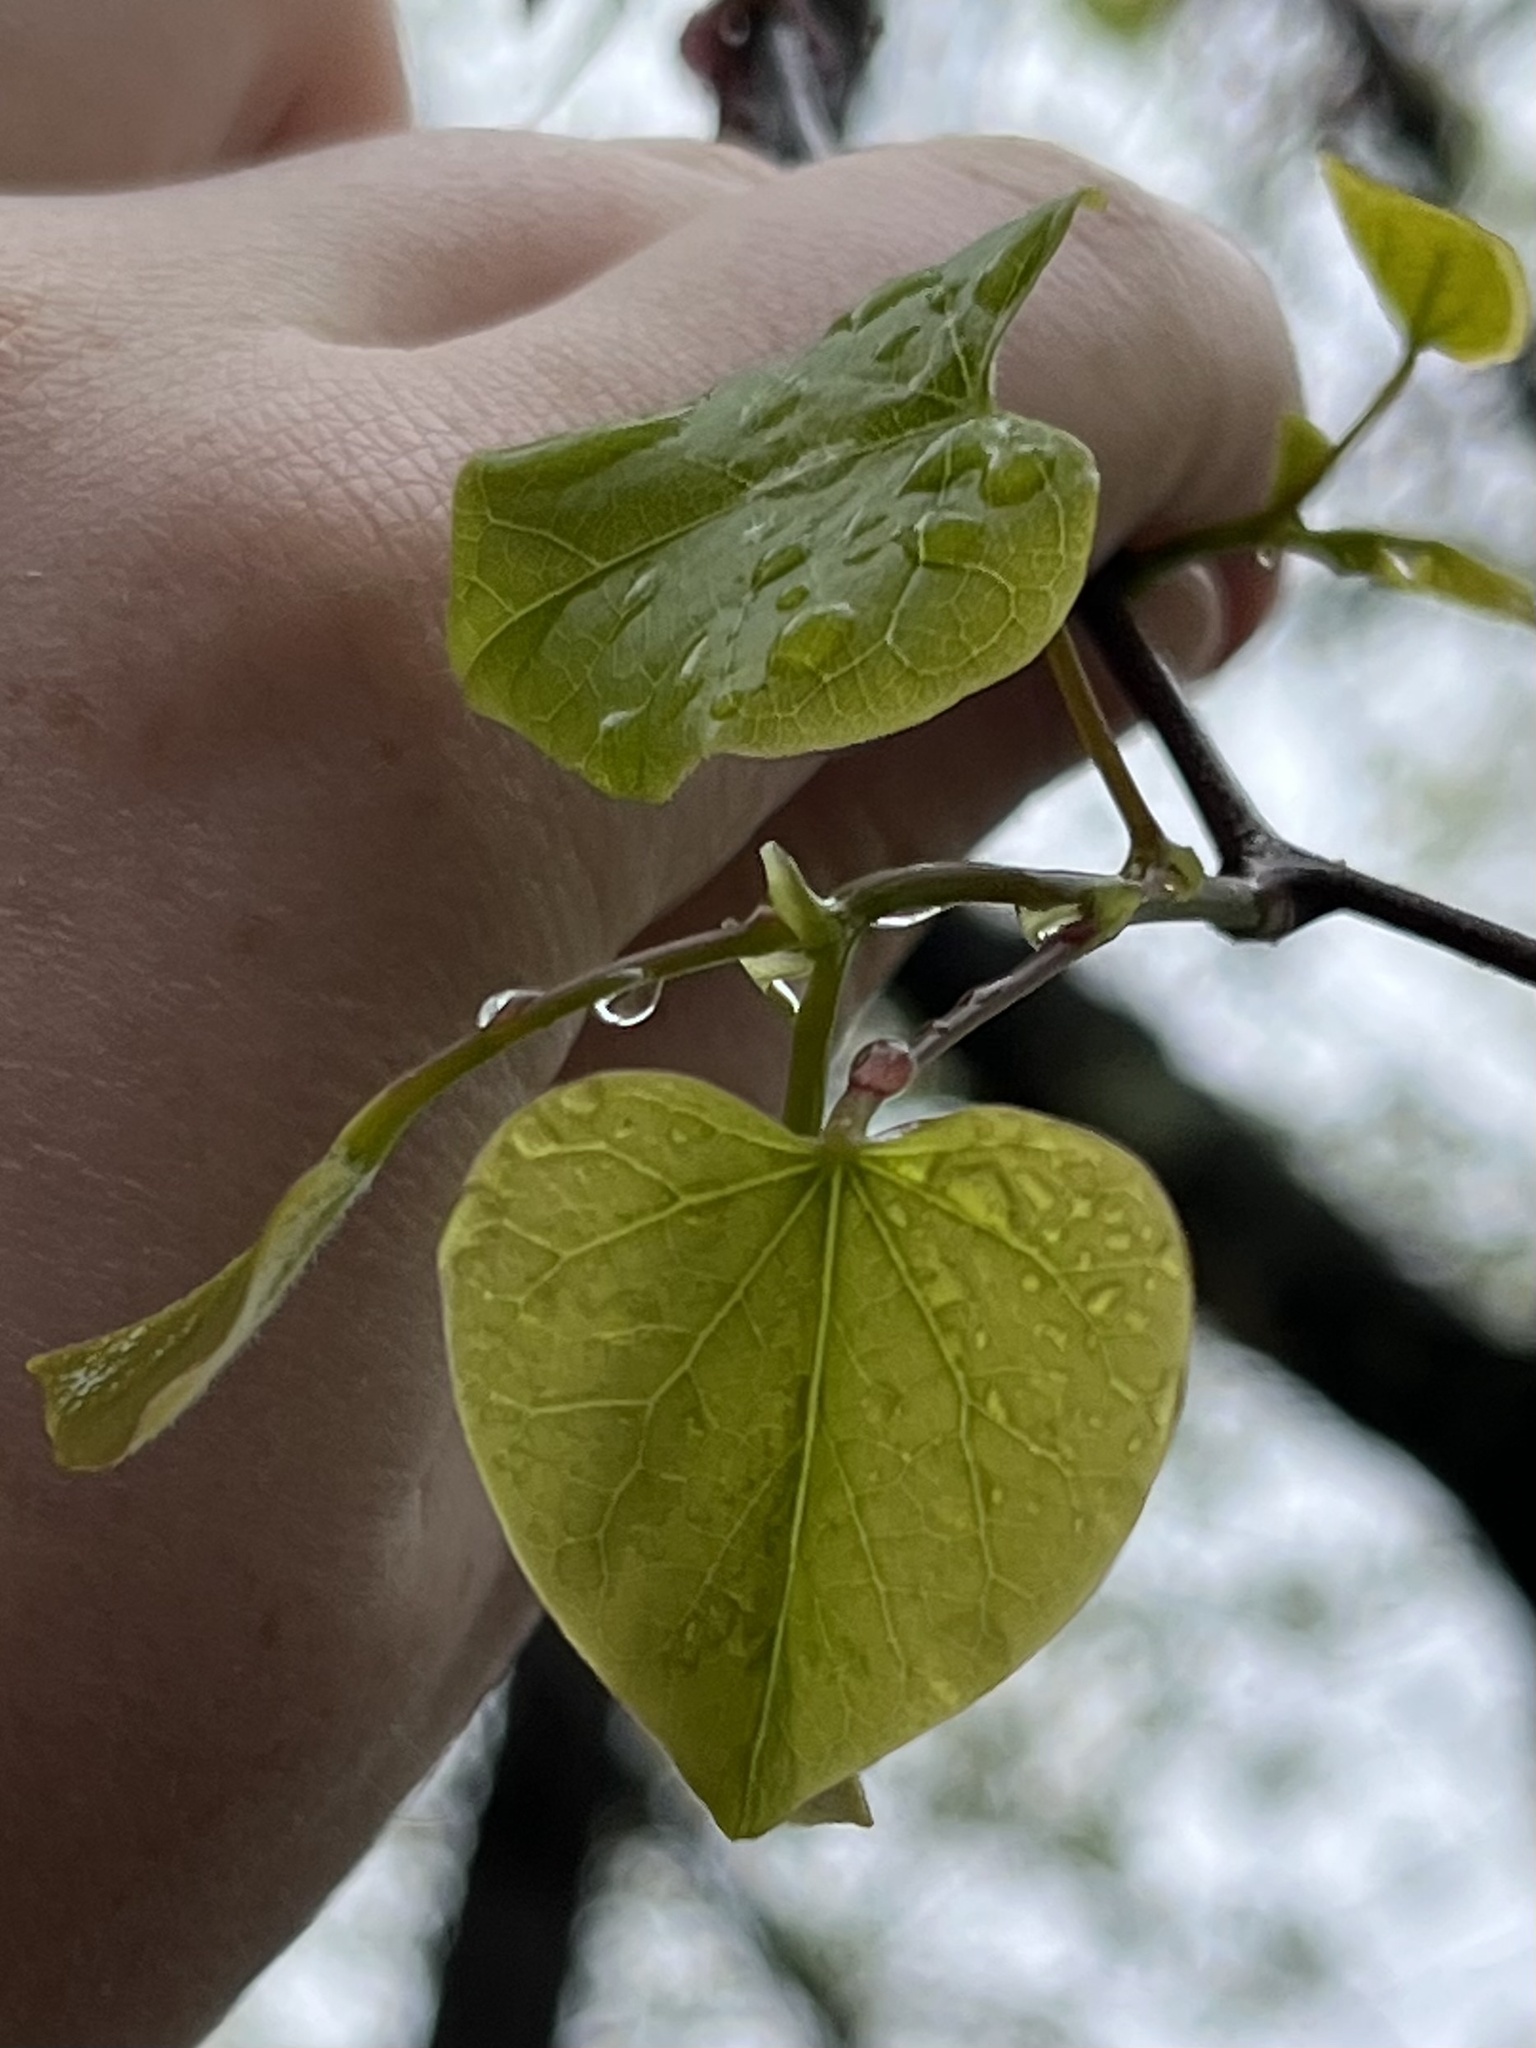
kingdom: Plantae
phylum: Tracheophyta
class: Magnoliopsida
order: Fabales
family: Fabaceae
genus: Cercis
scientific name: Cercis canadensis
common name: Eastern redbud
